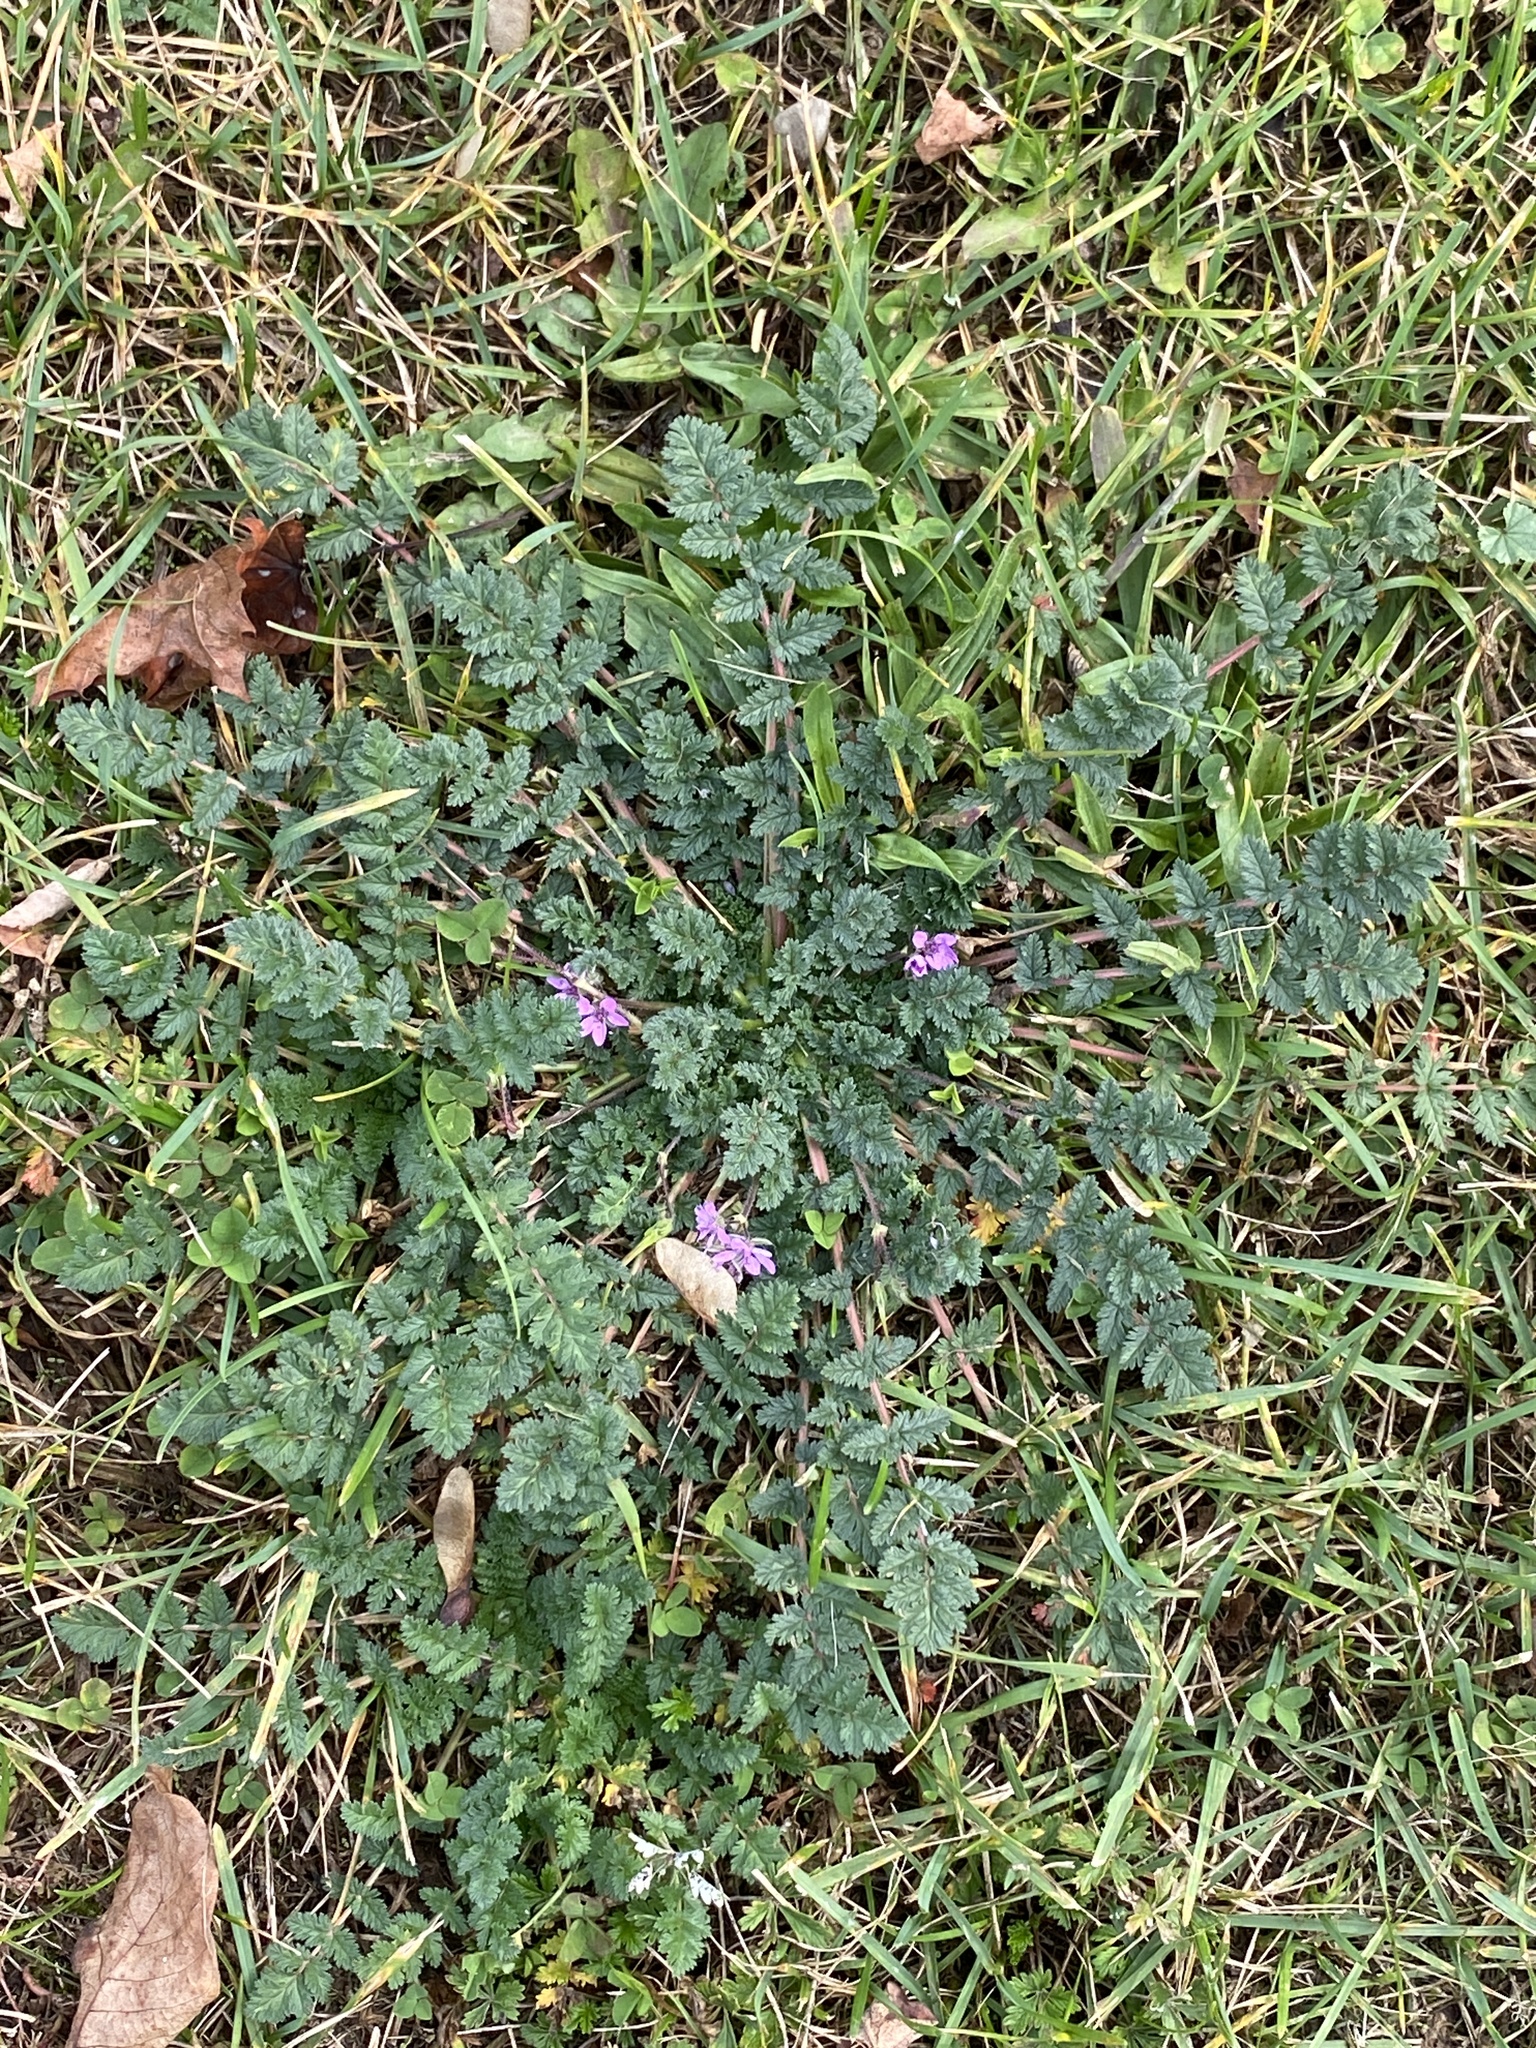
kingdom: Plantae
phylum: Tracheophyta
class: Magnoliopsida
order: Geraniales
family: Geraniaceae
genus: Erodium
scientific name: Erodium cicutarium
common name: Common stork's-bill
